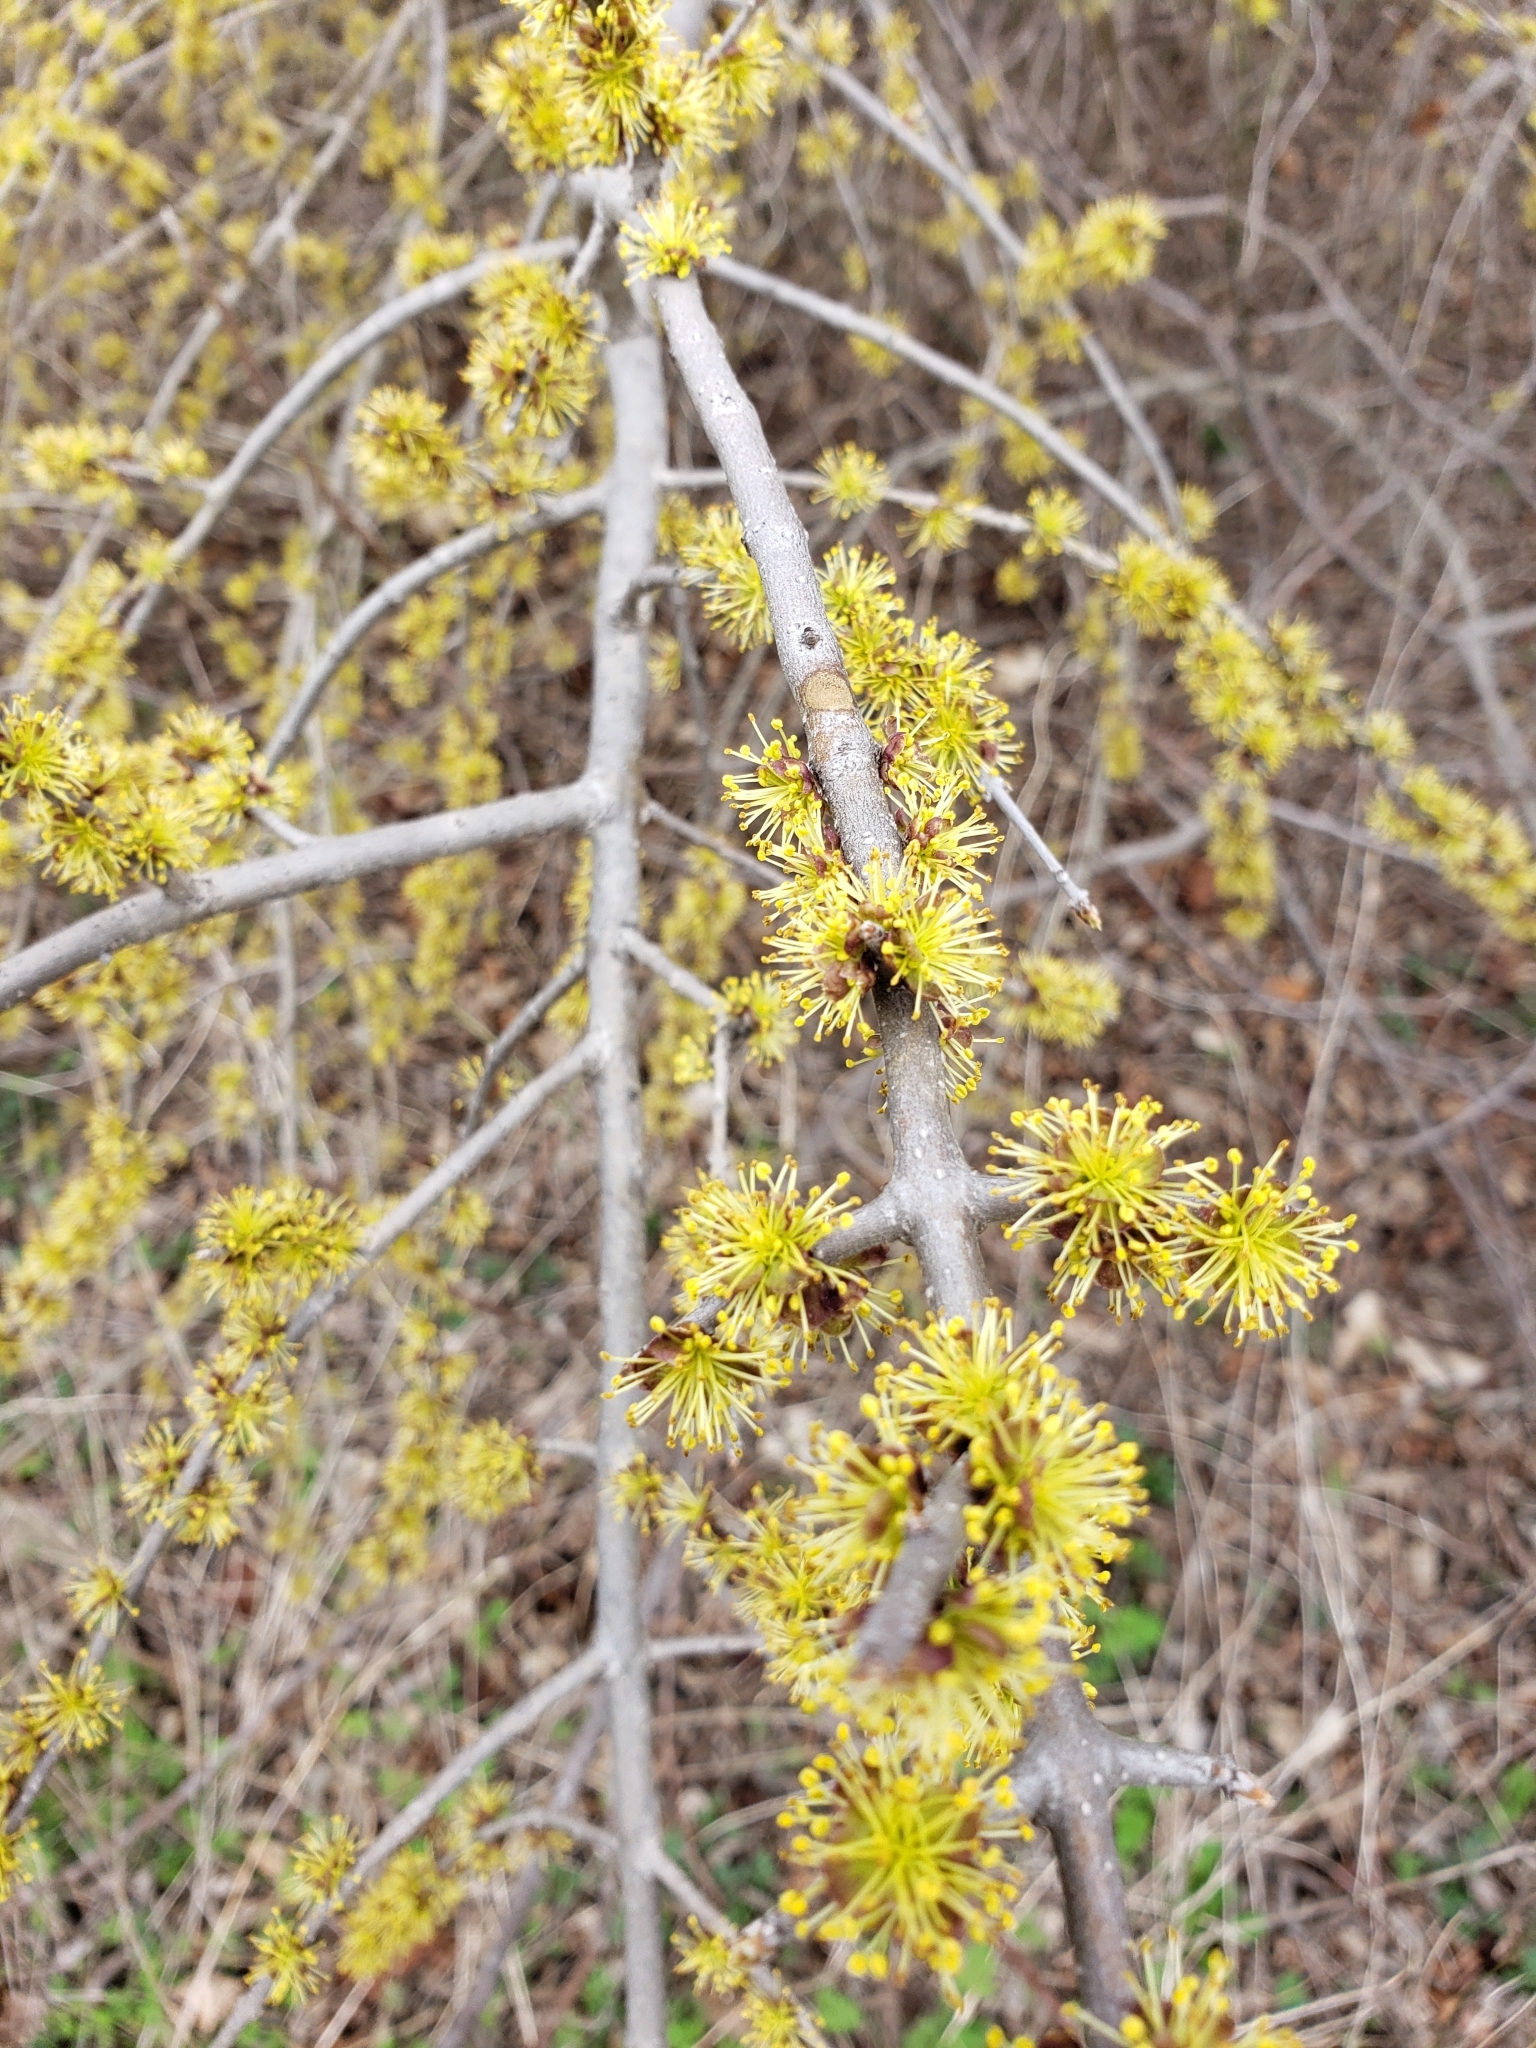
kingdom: Plantae
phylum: Tracheophyta
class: Magnoliopsida
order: Lamiales
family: Oleaceae
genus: Forestiera
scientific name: Forestiera pubescens
